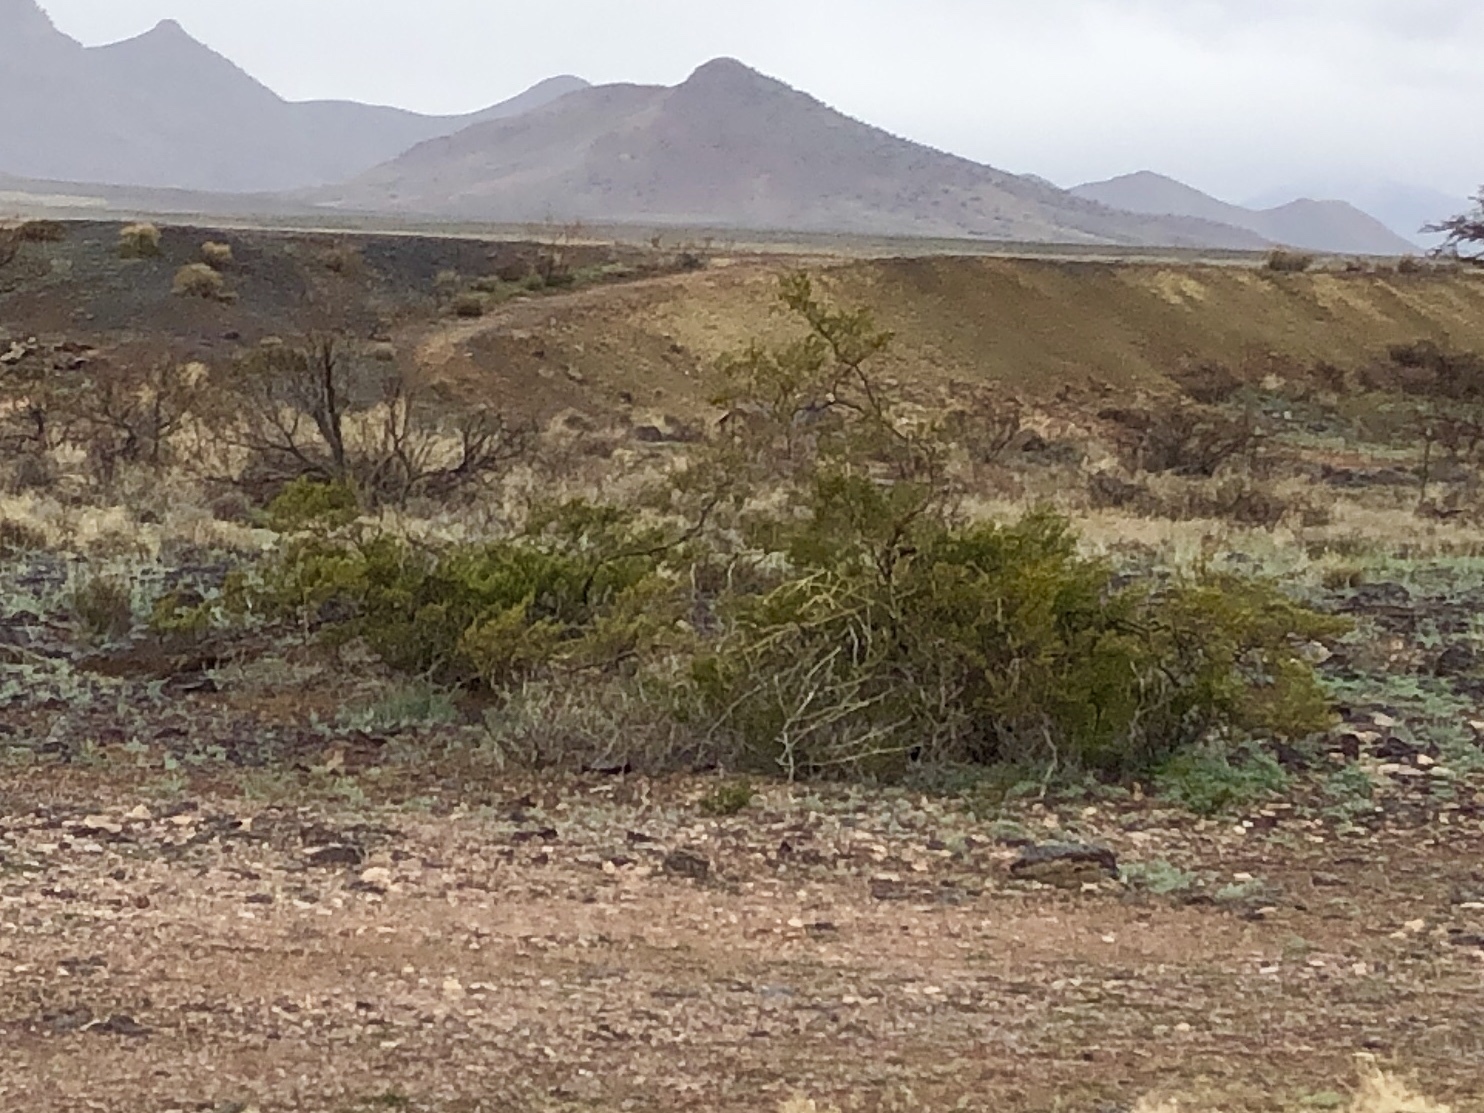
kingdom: Plantae
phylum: Tracheophyta
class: Magnoliopsida
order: Zygophyllales
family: Zygophyllaceae
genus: Larrea
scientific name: Larrea tridentata
